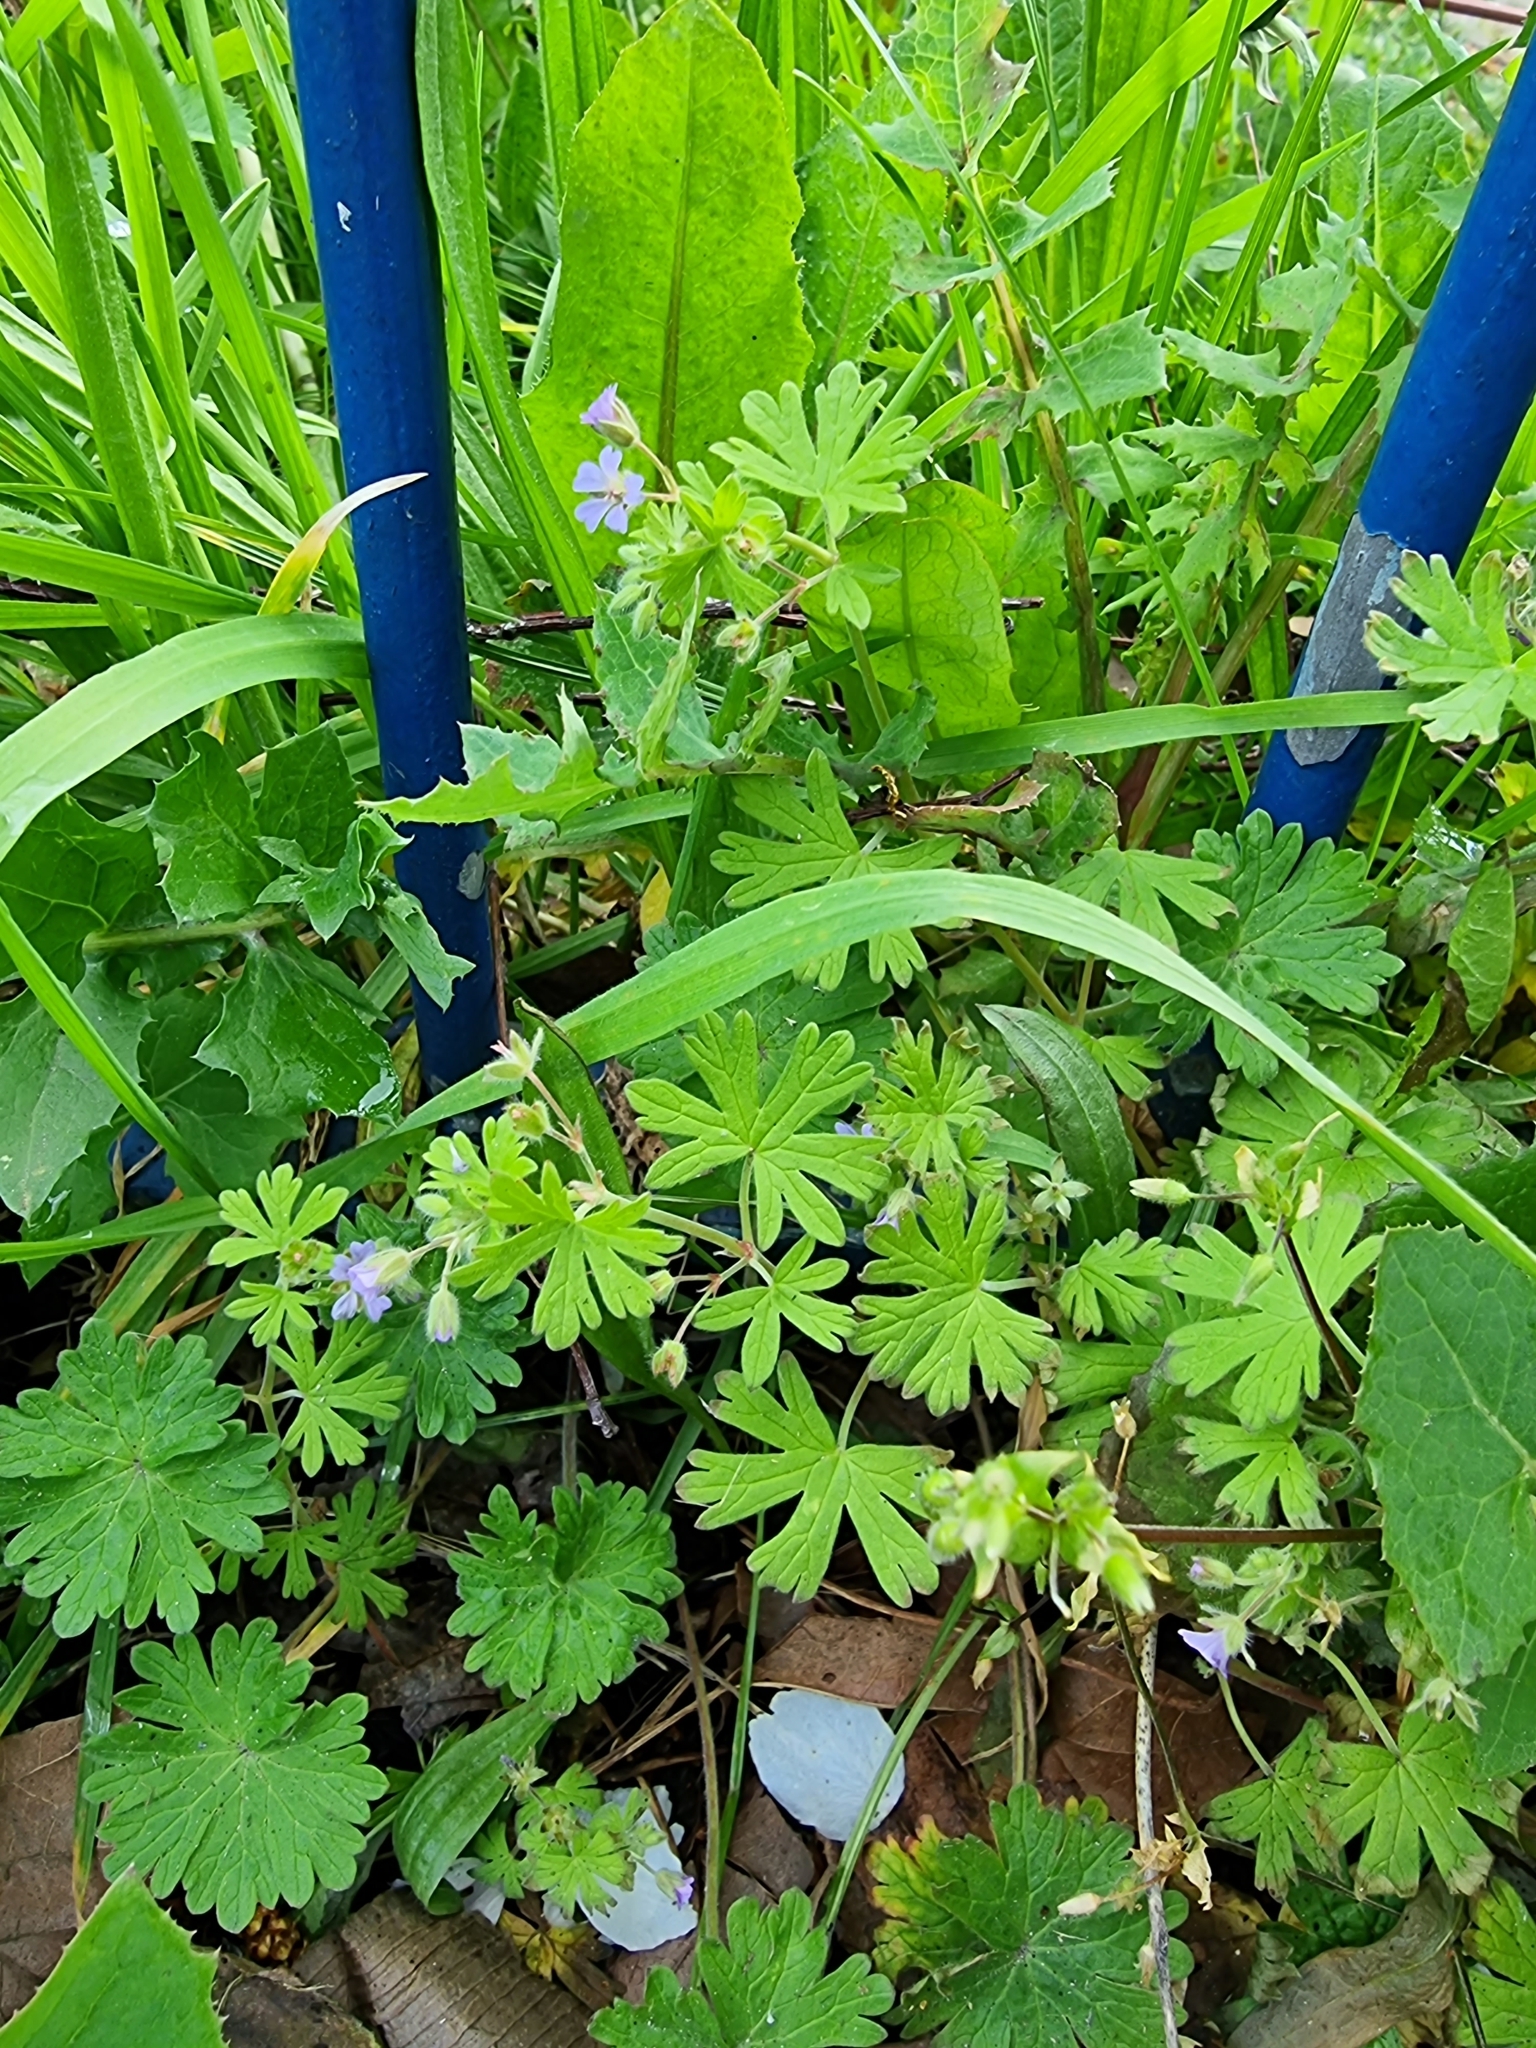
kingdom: Plantae
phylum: Tracheophyta
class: Magnoliopsida
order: Geraniales
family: Geraniaceae
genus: Geranium
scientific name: Geranium pusillum
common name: Small geranium
